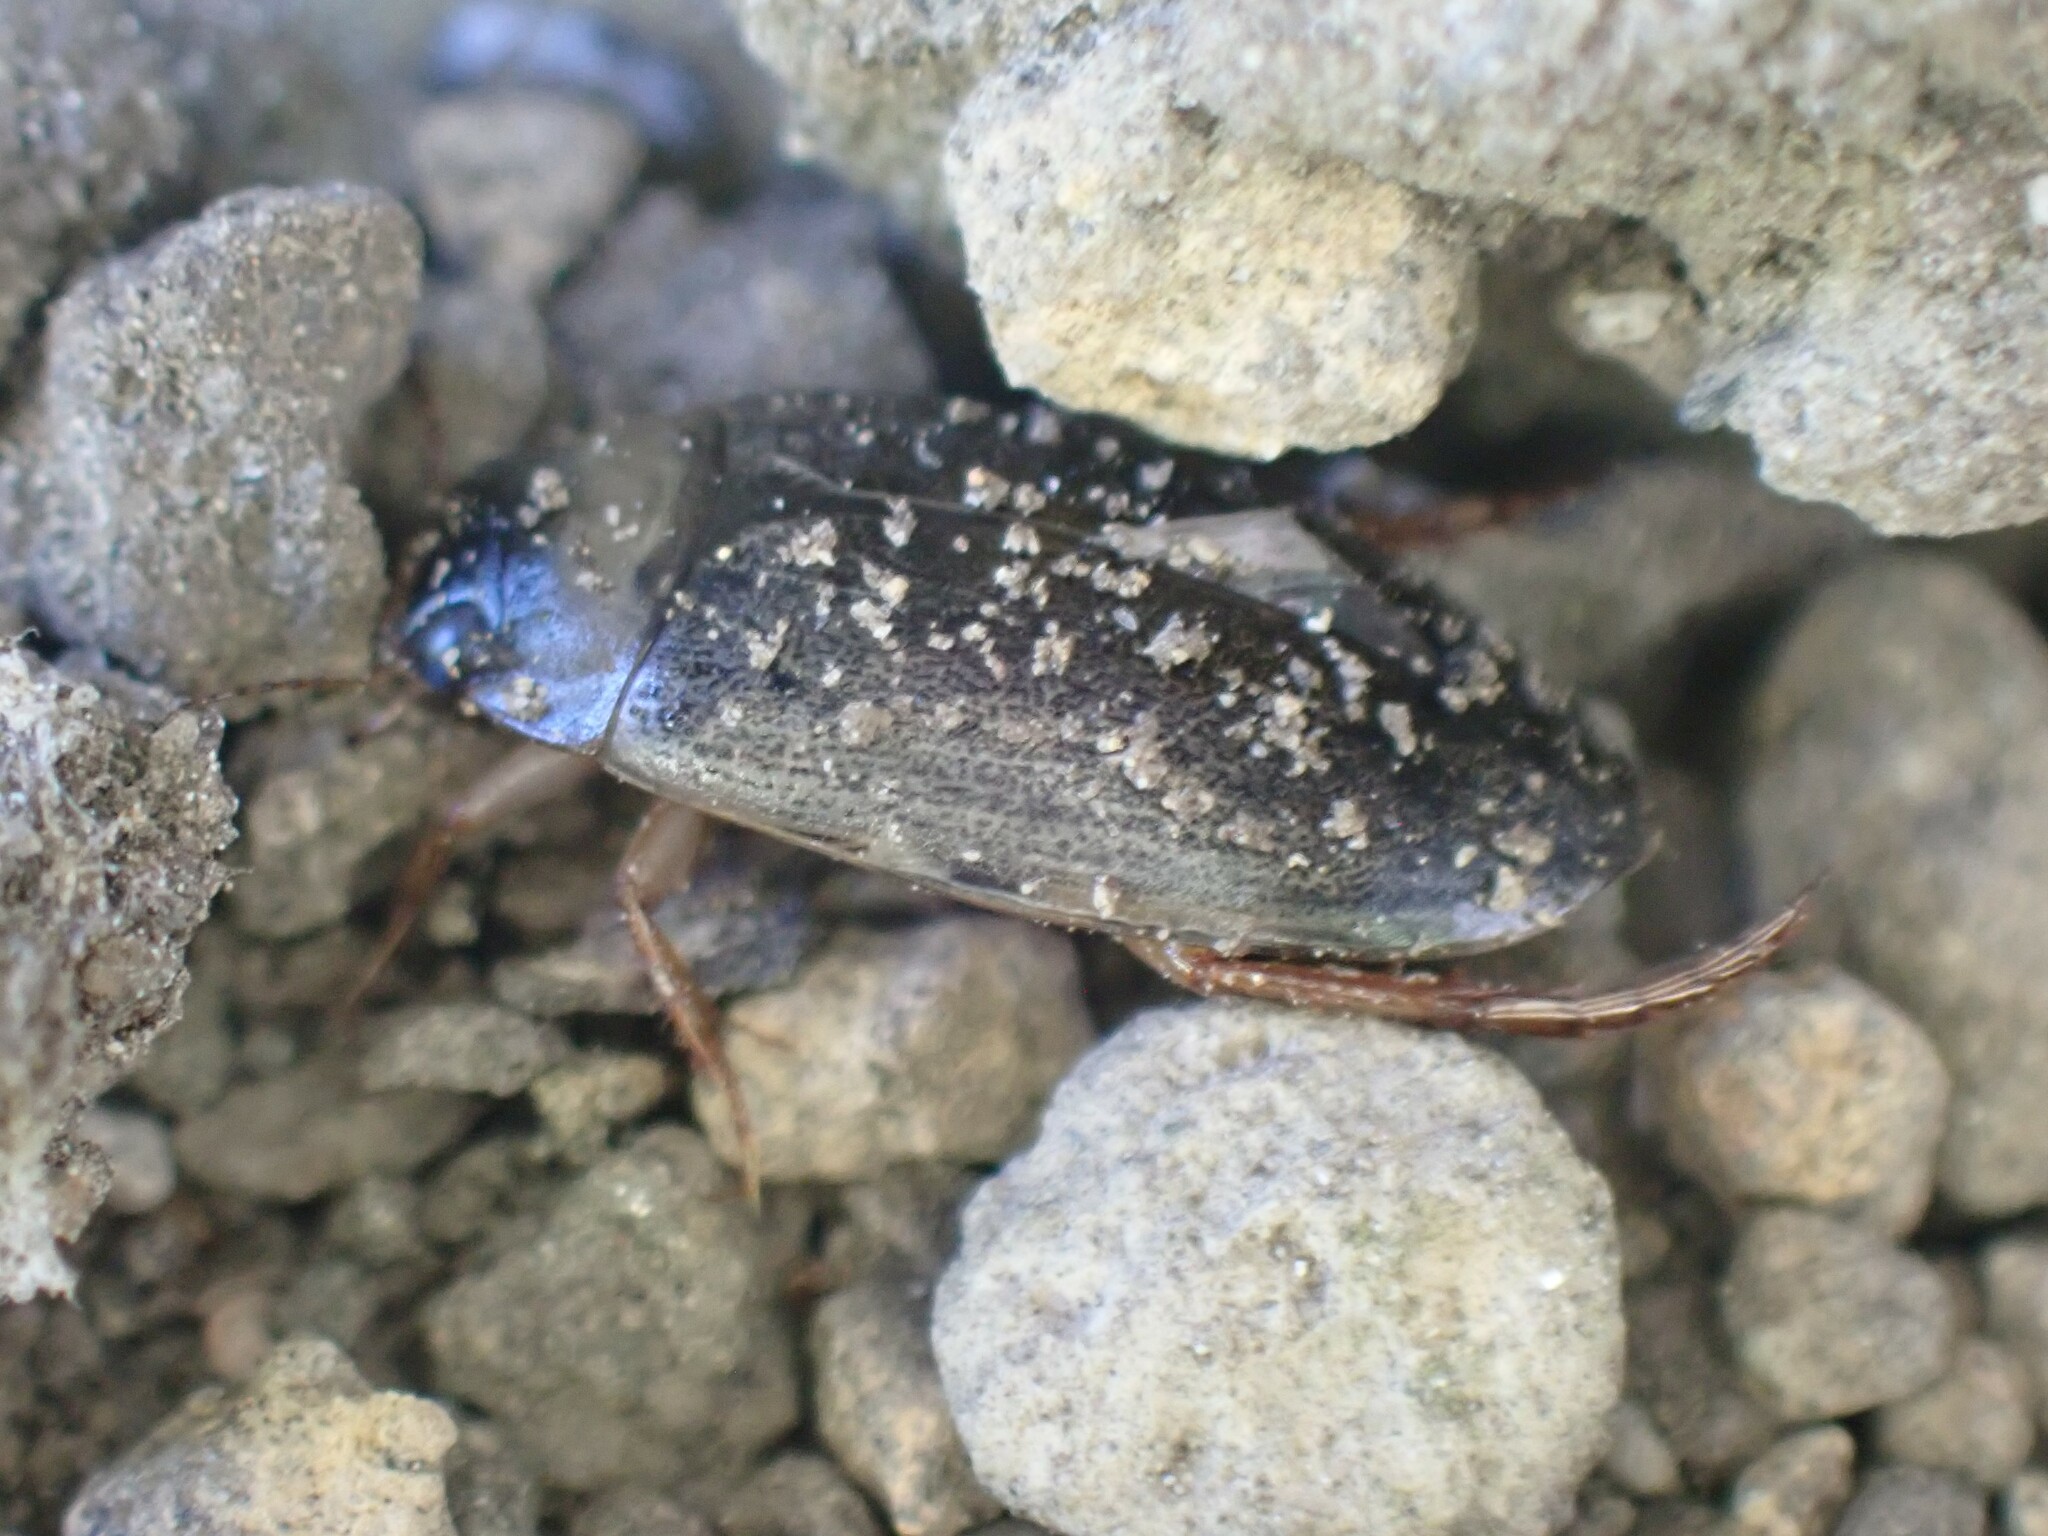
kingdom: Animalia
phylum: Arthropoda
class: Insecta
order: Coleoptera
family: Dytiscidae
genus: Rhantus
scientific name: Rhantus consimilis
